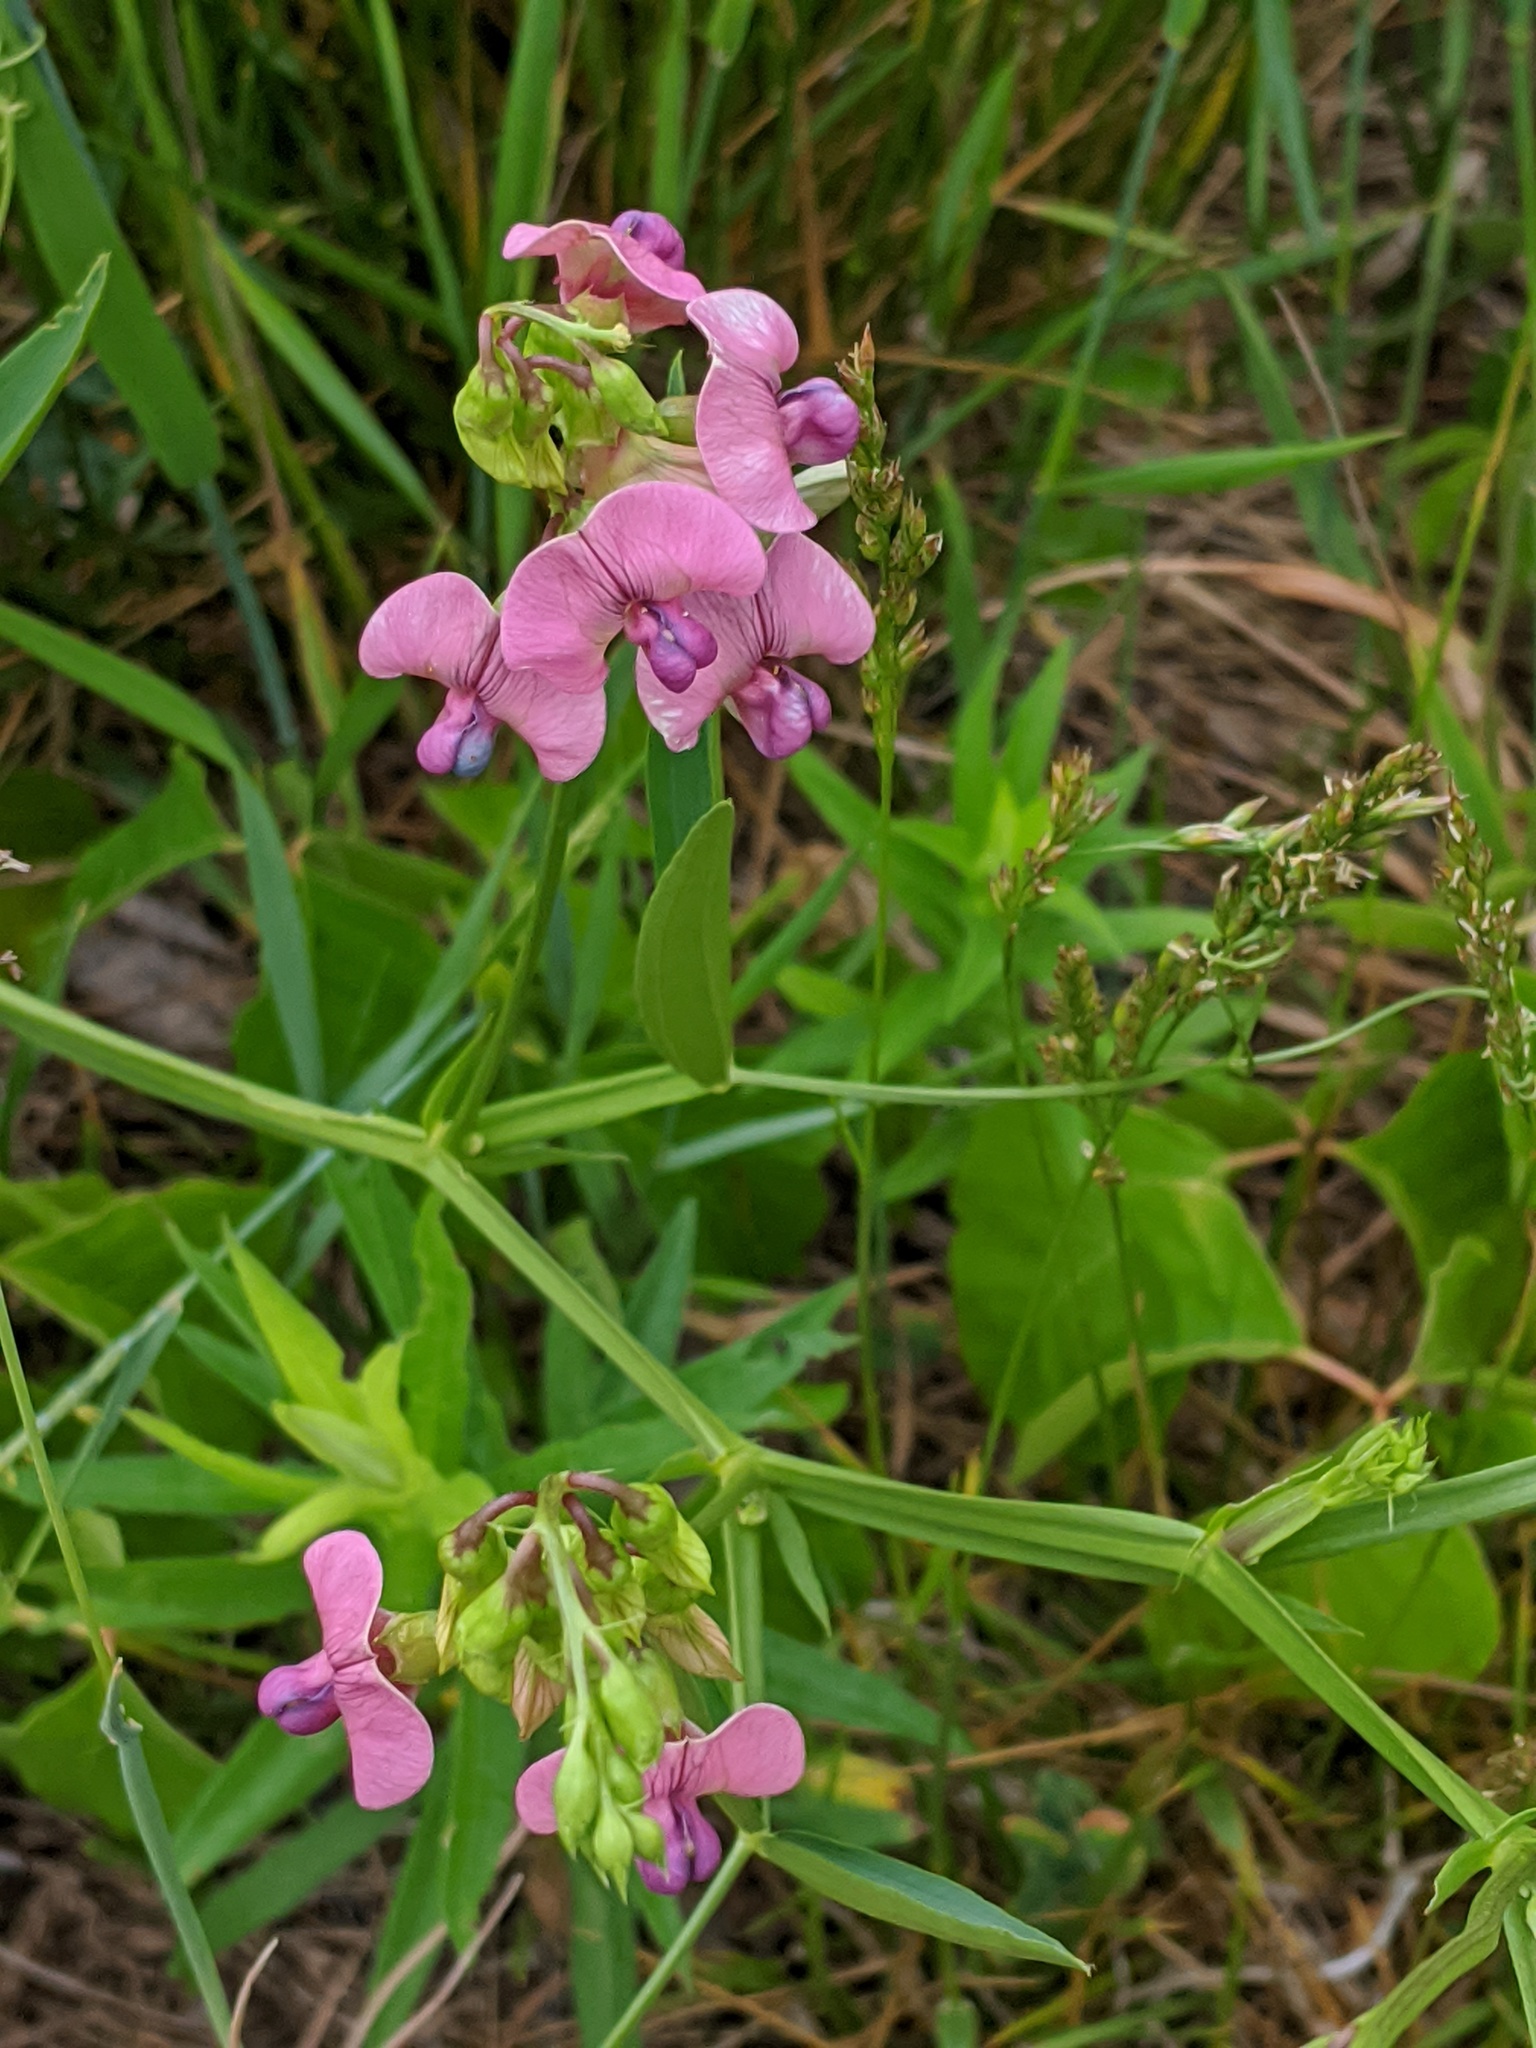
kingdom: Plantae
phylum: Tracheophyta
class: Magnoliopsida
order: Fabales
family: Fabaceae
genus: Lathyrus
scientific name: Lathyrus sylvestris
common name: Flat pea
